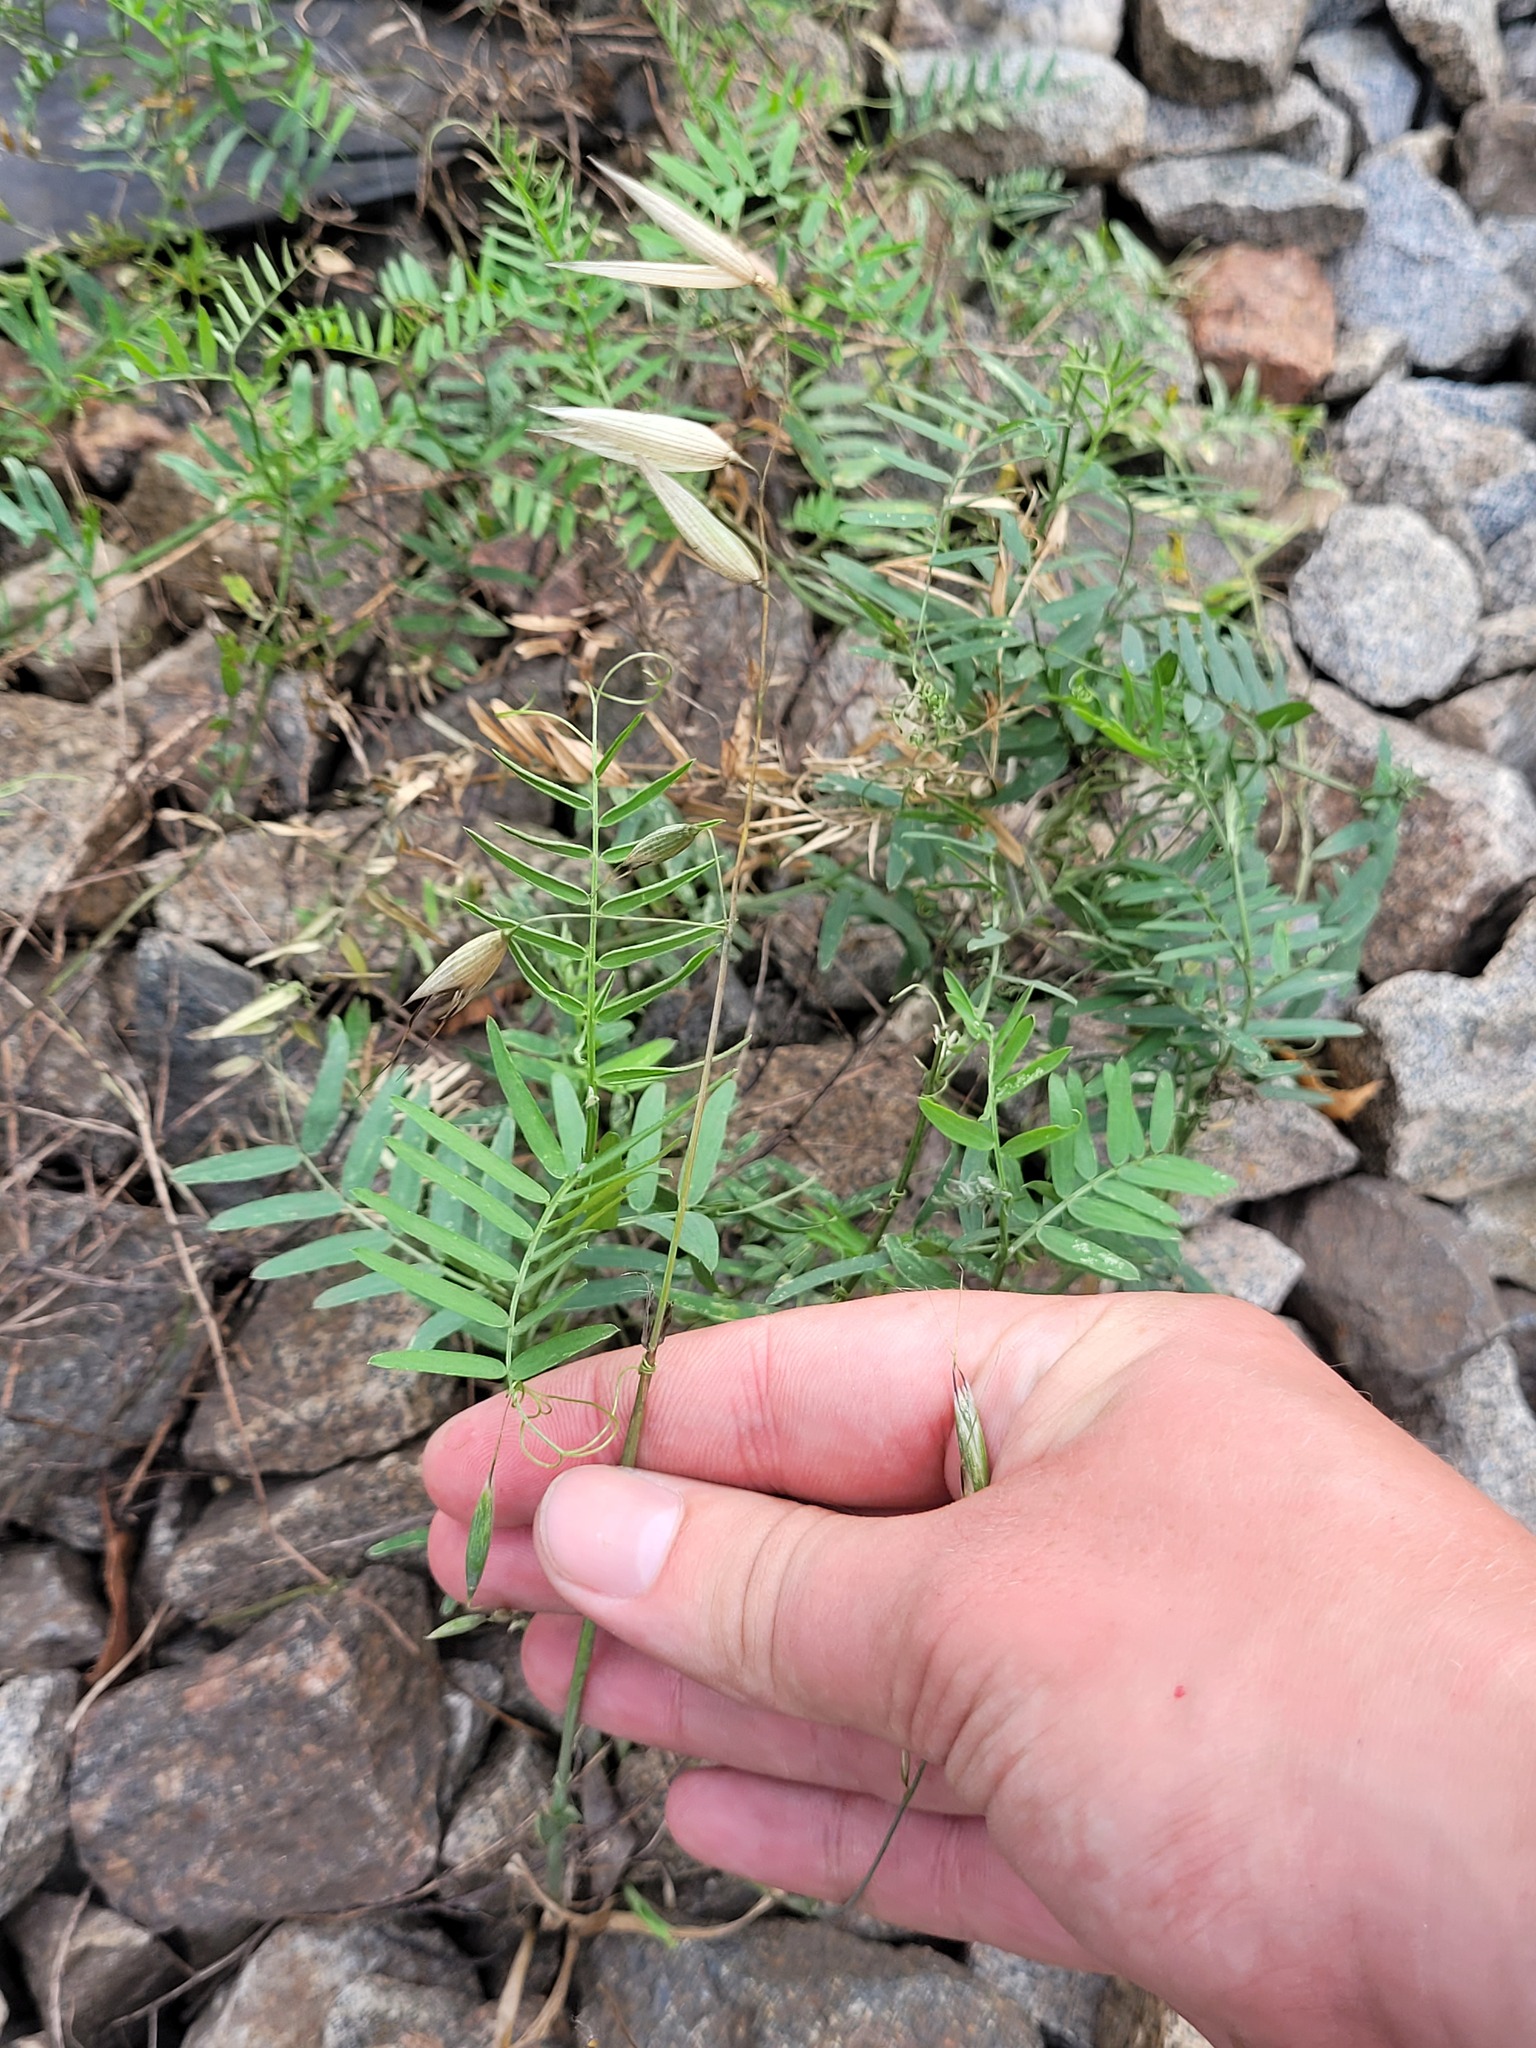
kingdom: Plantae
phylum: Tracheophyta
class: Liliopsida
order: Poales
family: Poaceae
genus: Avena
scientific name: Avena fatua
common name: Wild oat
